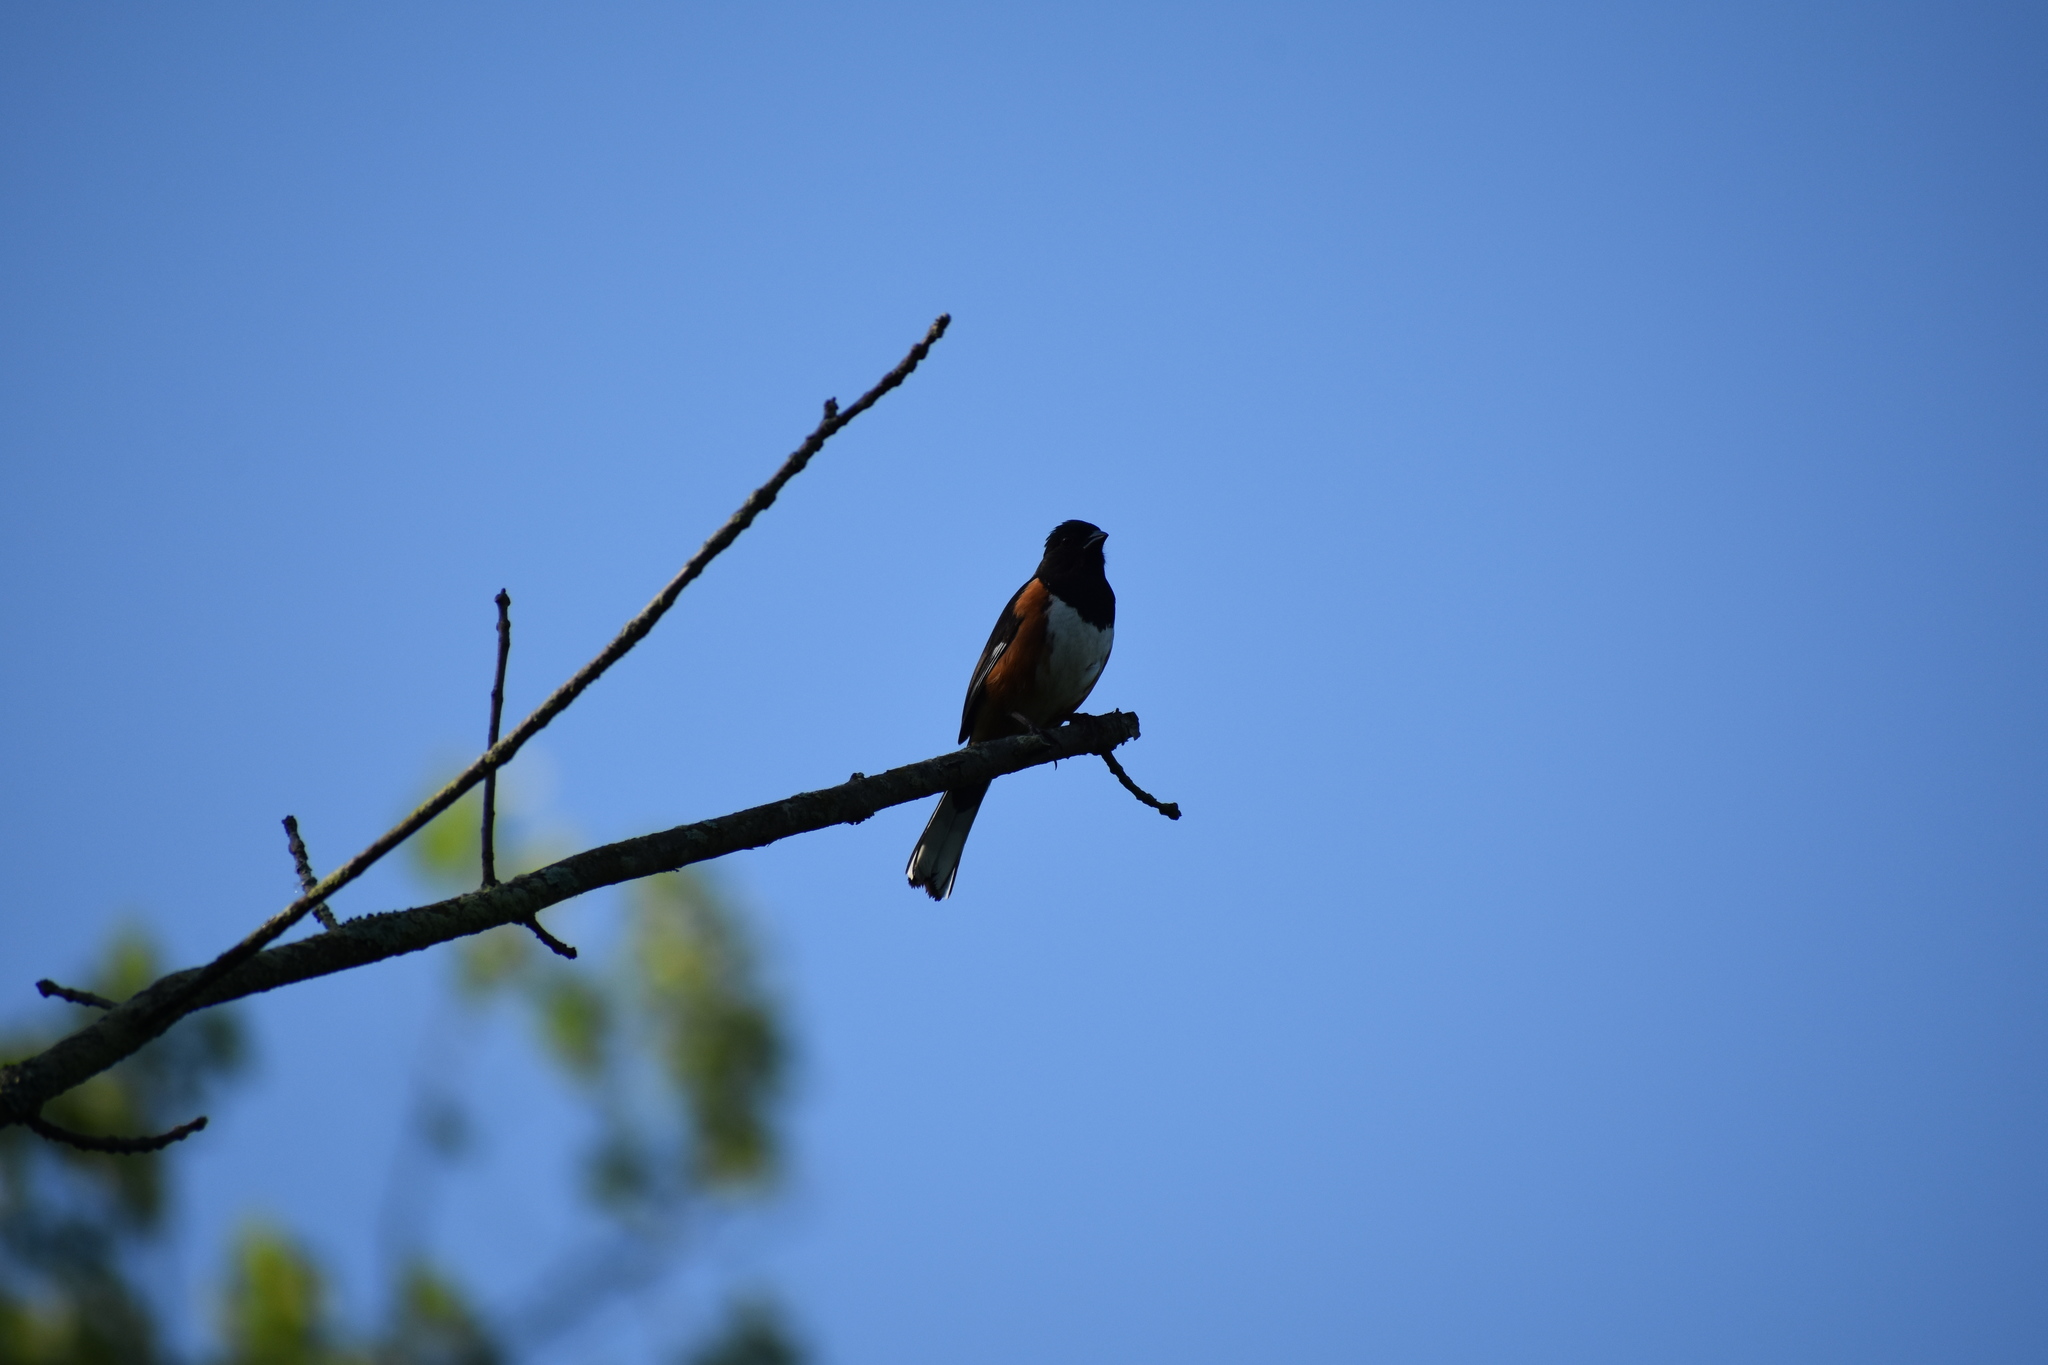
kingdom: Animalia
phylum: Chordata
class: Aves
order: Passeriformes
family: Passerellidae
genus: Pipilo
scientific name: Pipilo erythrophthalmus
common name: Eastern towhee
